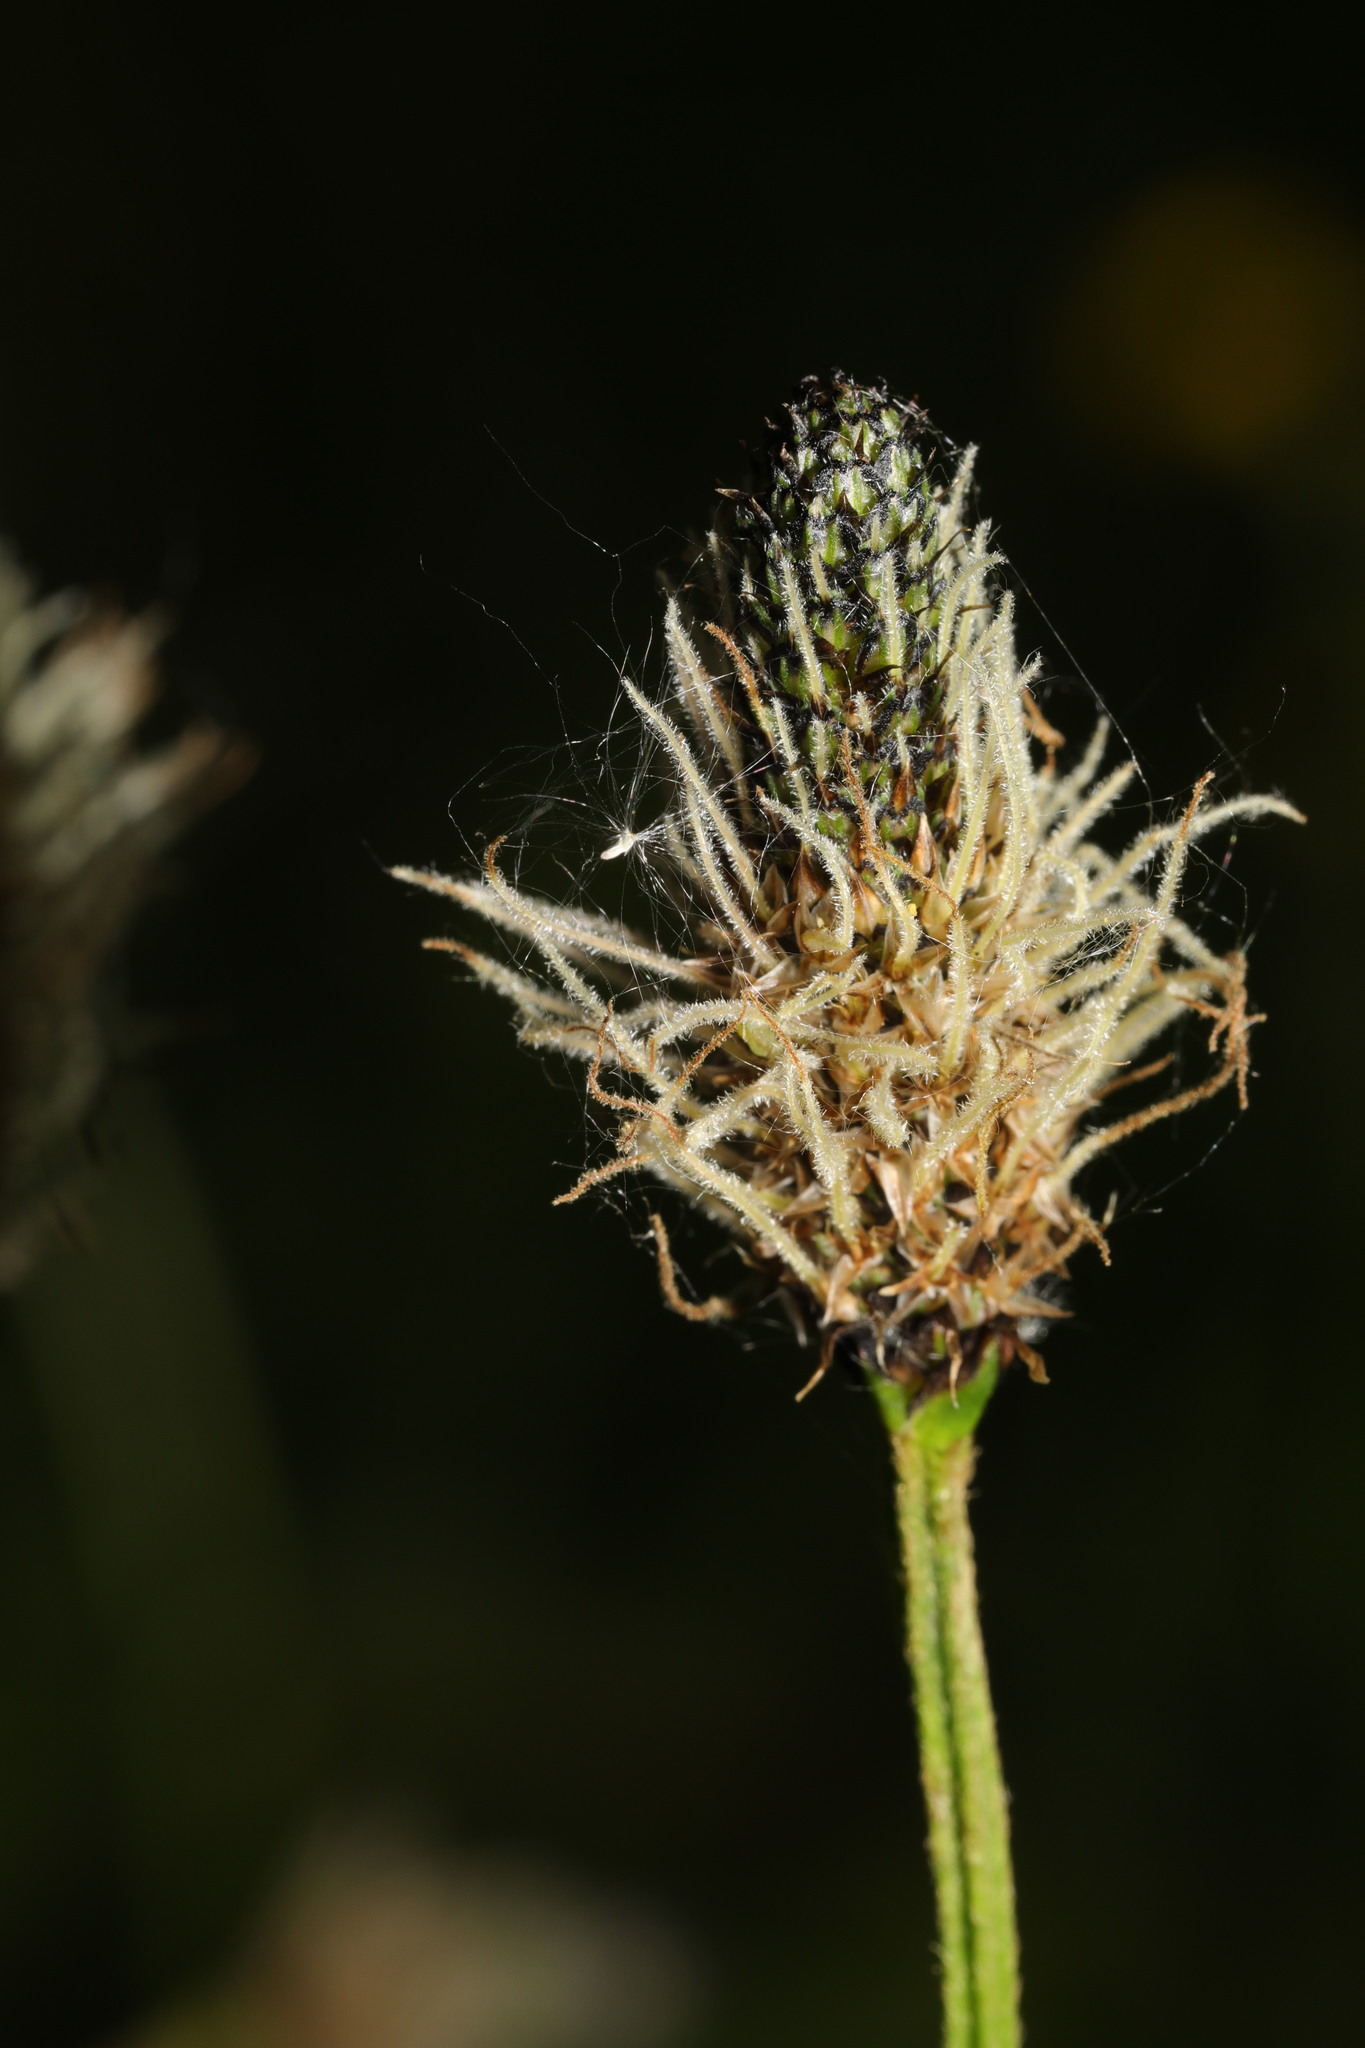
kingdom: Plantae
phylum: Tracheophyta
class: Magnoliopsida
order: Lamiales
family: Plantaginaceae
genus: Plantago
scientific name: Plantago lanceolata
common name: Ribwort plantain
